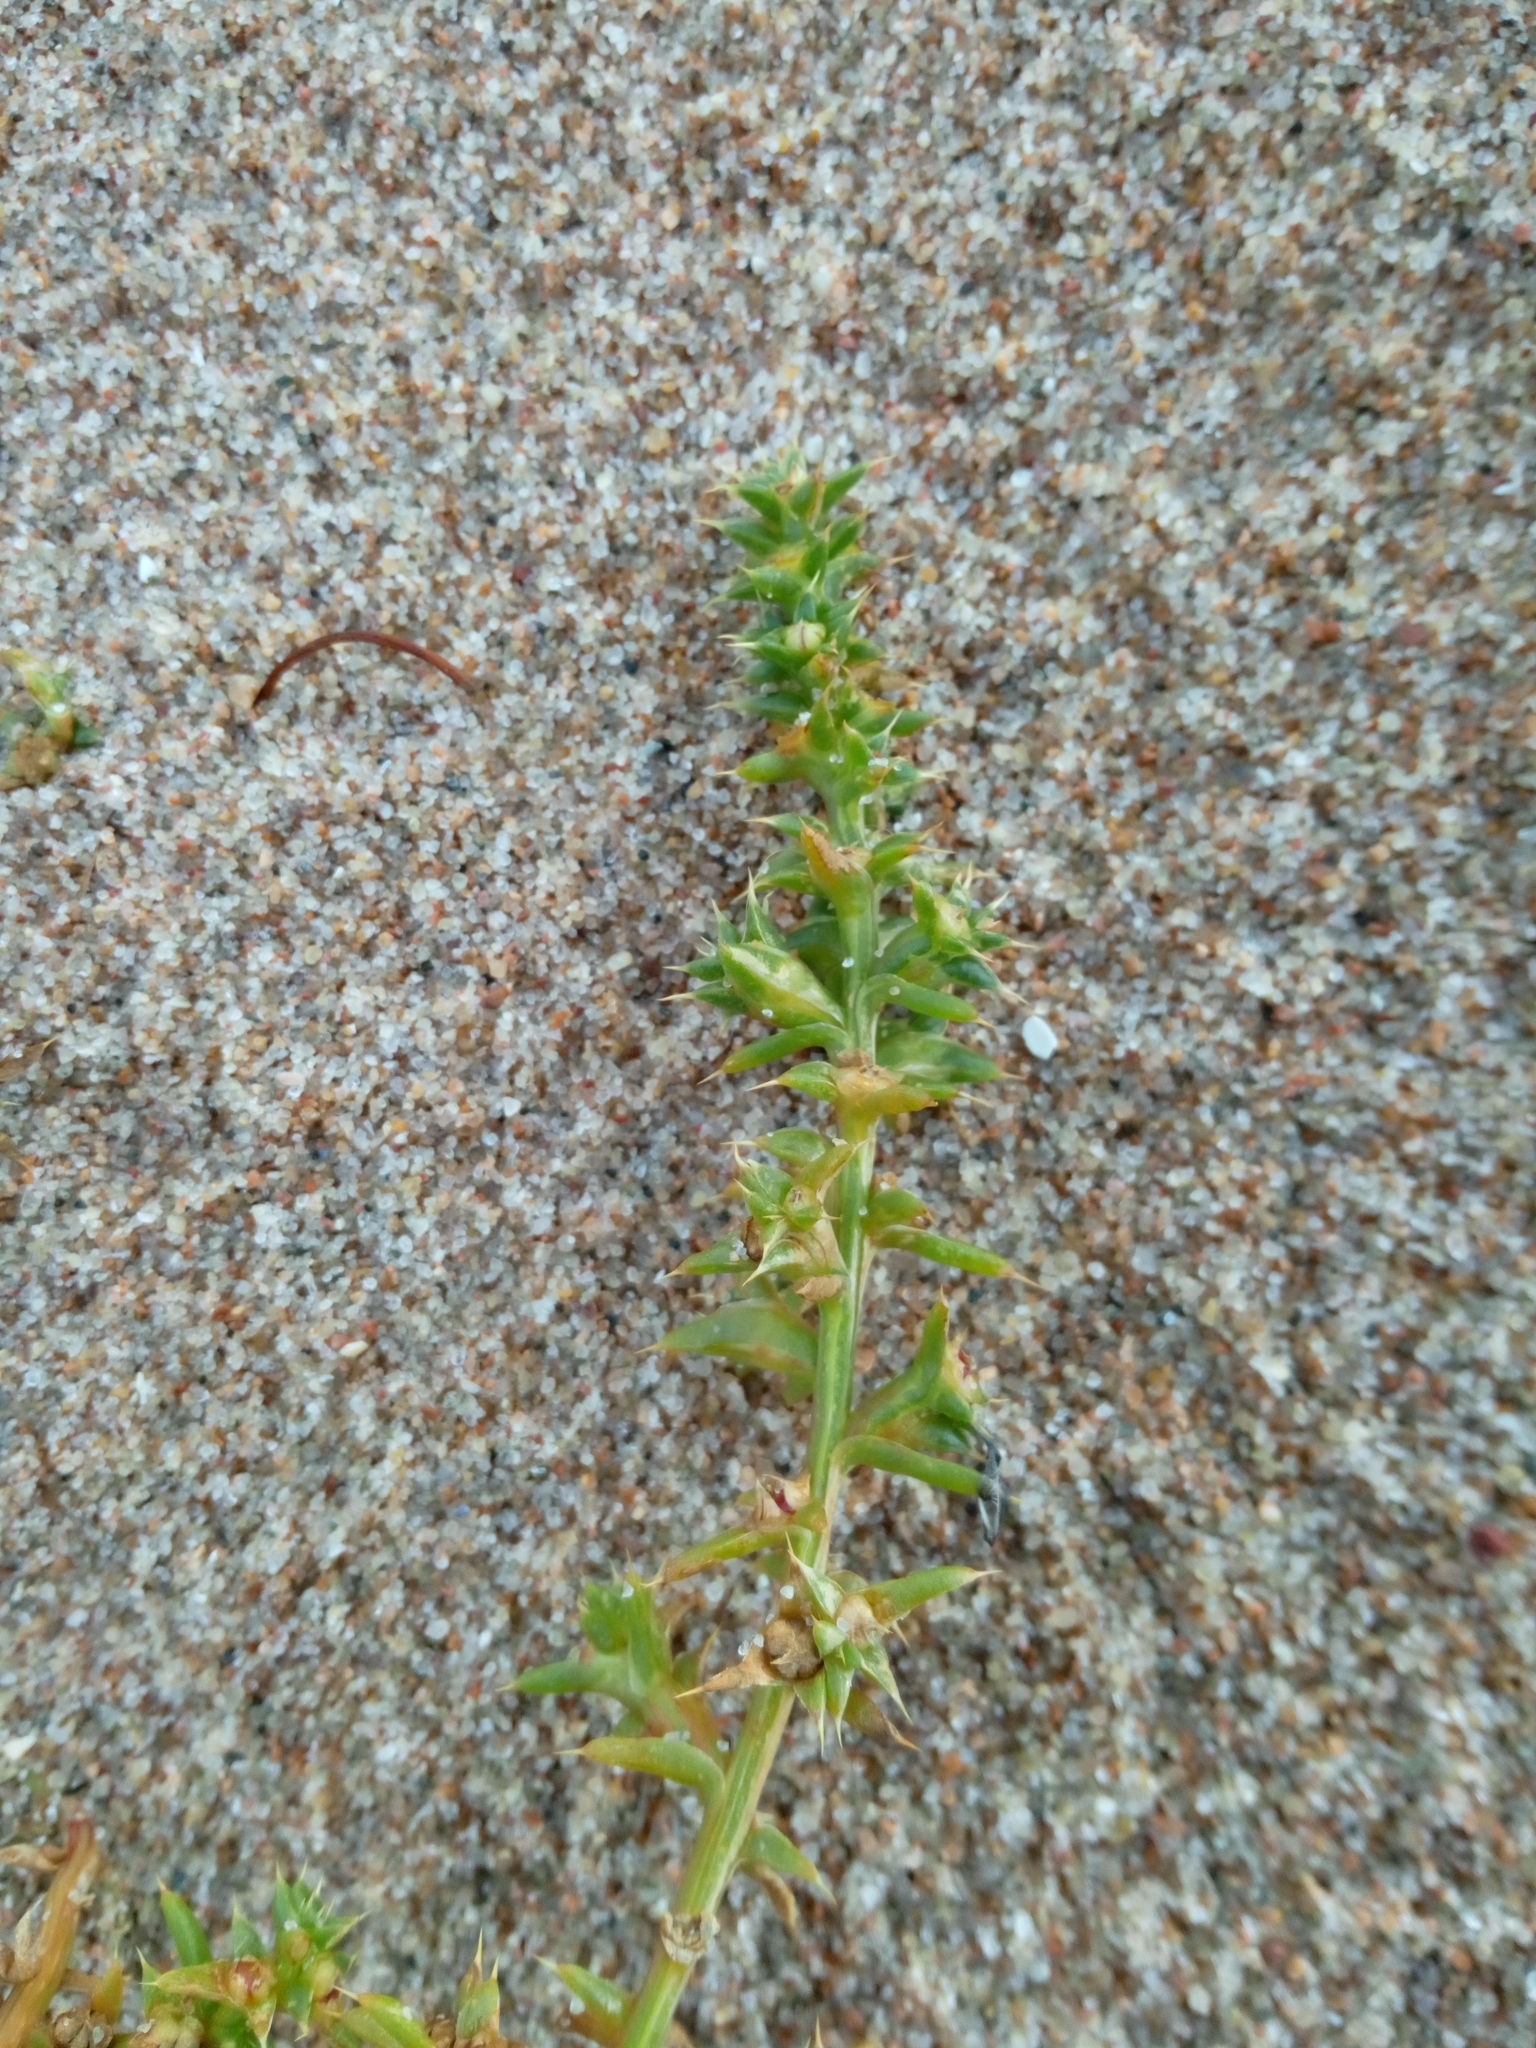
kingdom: Plantae
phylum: Tracheophyta
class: Magnoliopsida
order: Caryophyllales
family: Amaranthaceae
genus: Salsola
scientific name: Salsola kali
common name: Saltwort
